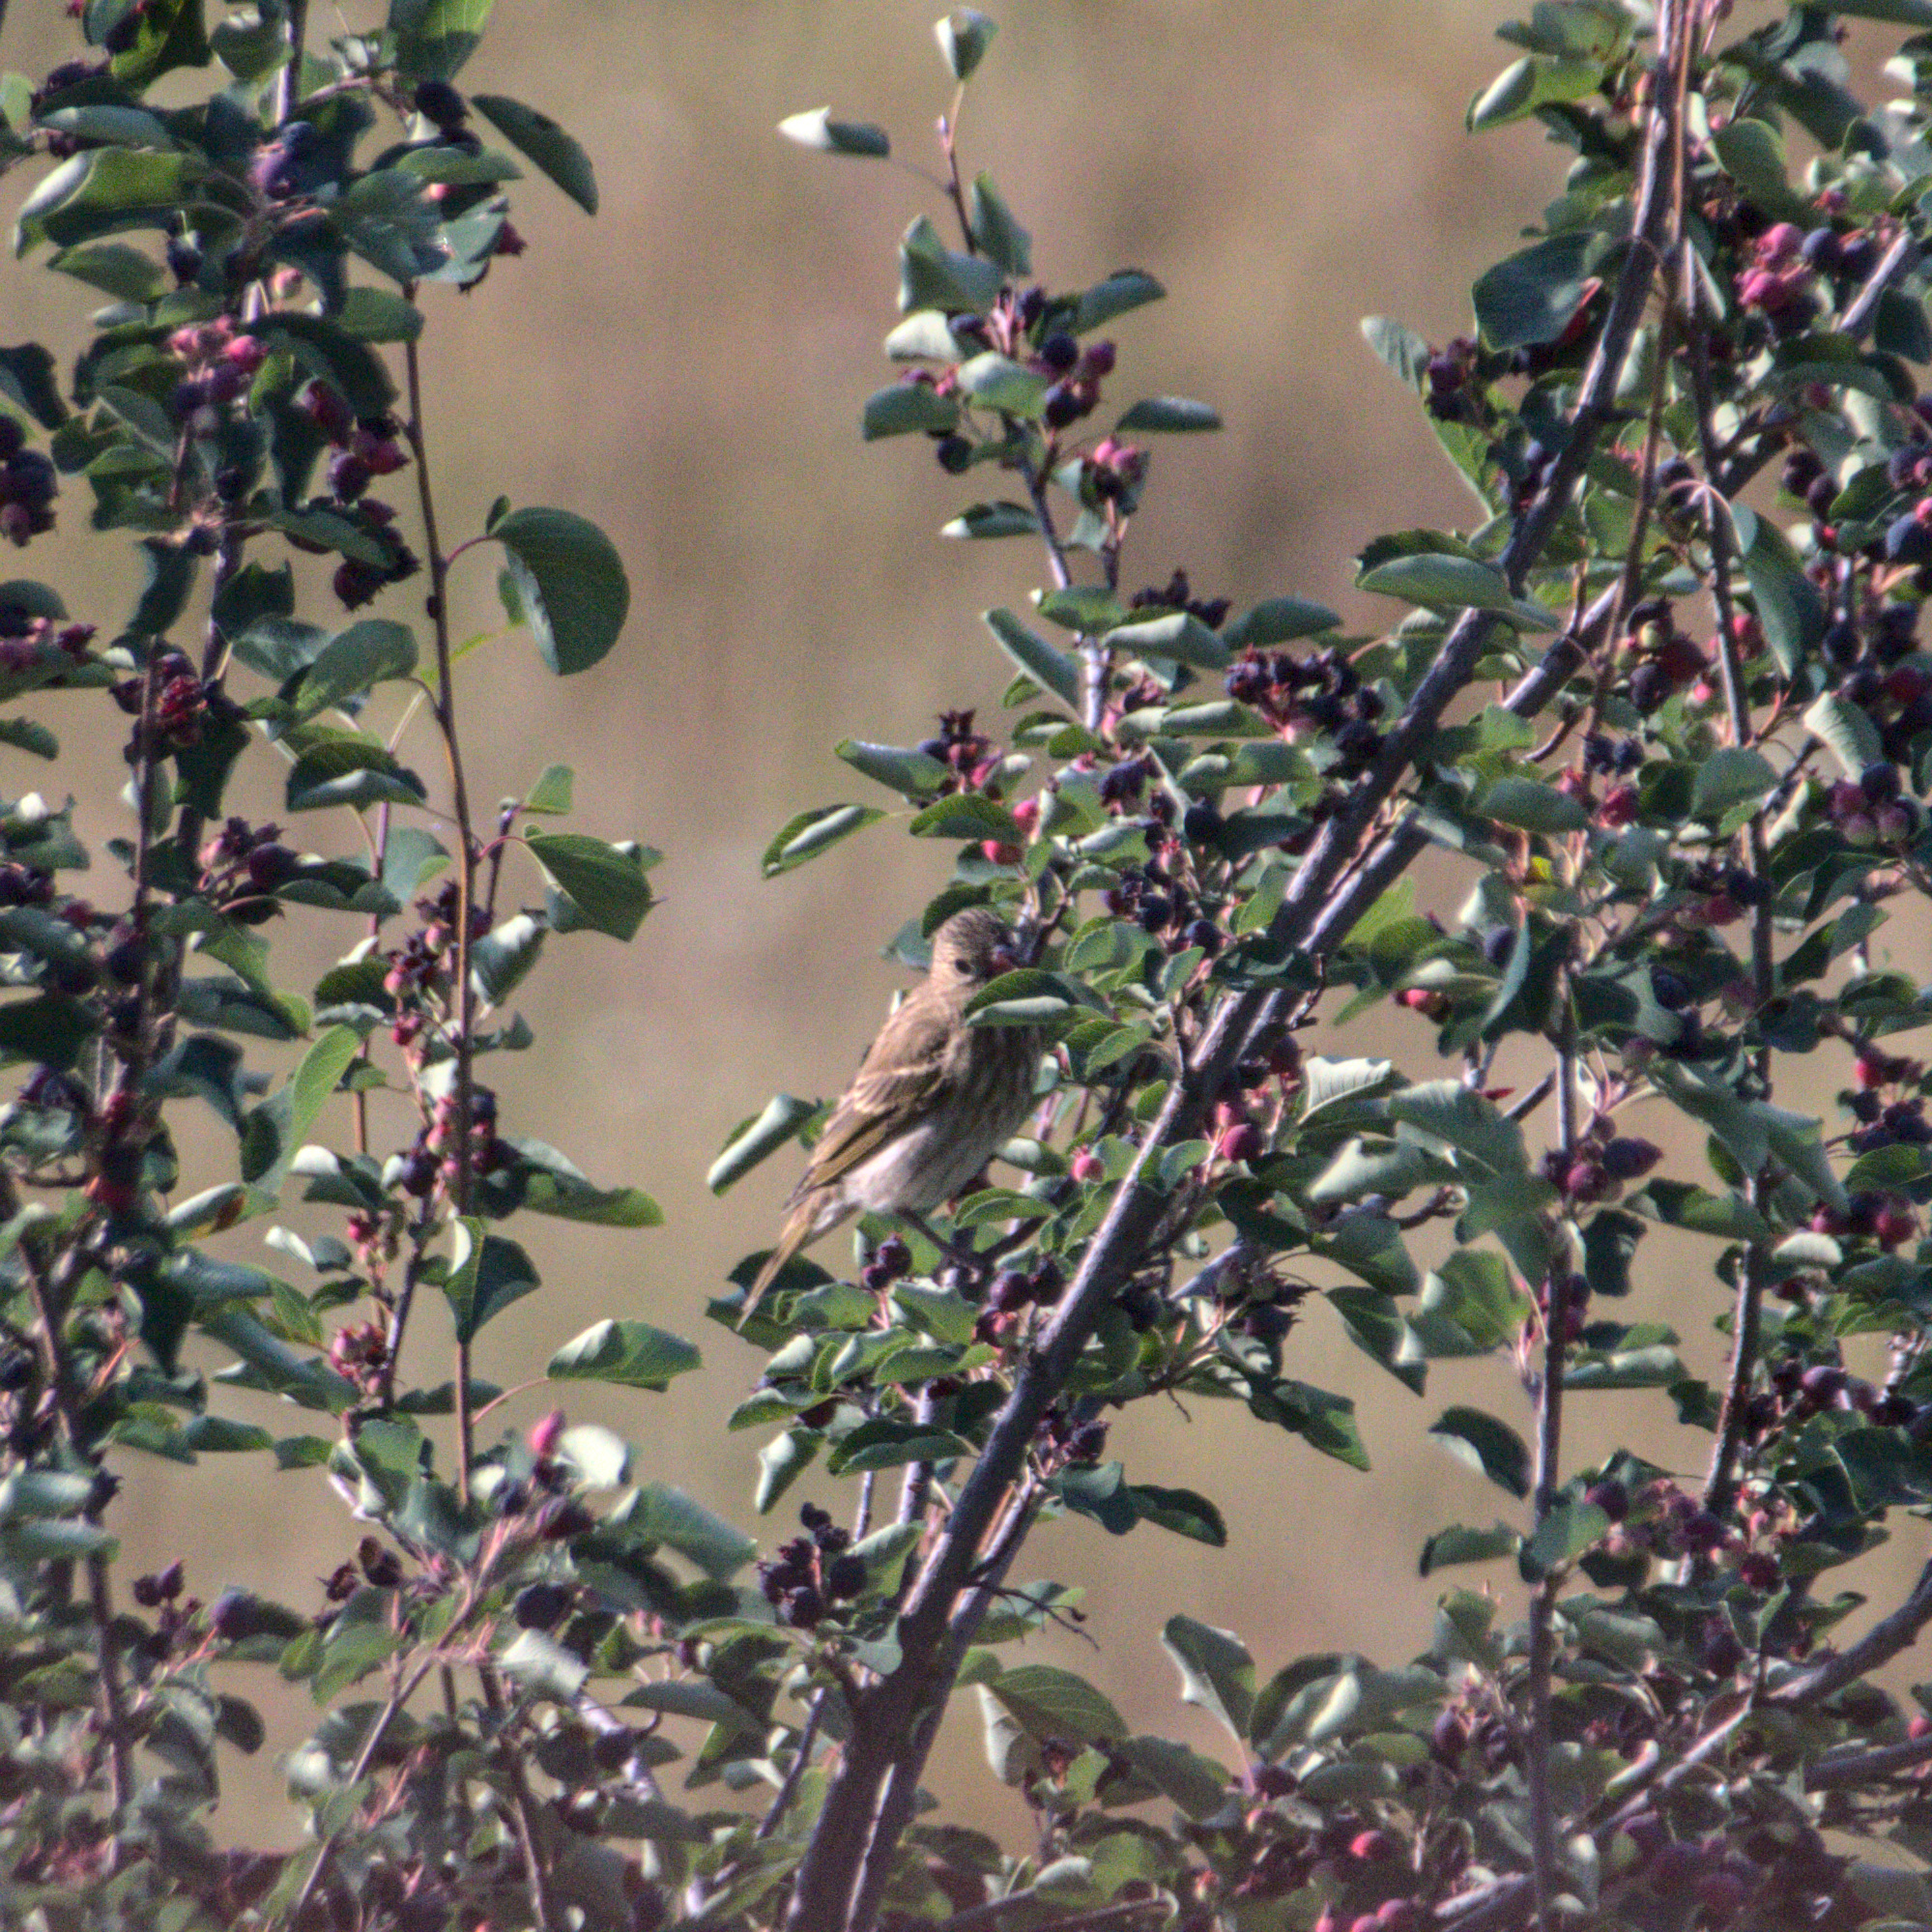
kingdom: Plantae
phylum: Tracheophyta
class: Liliopsida
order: Poales
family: Poaceae
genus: Chloris
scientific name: Chloris chloris
